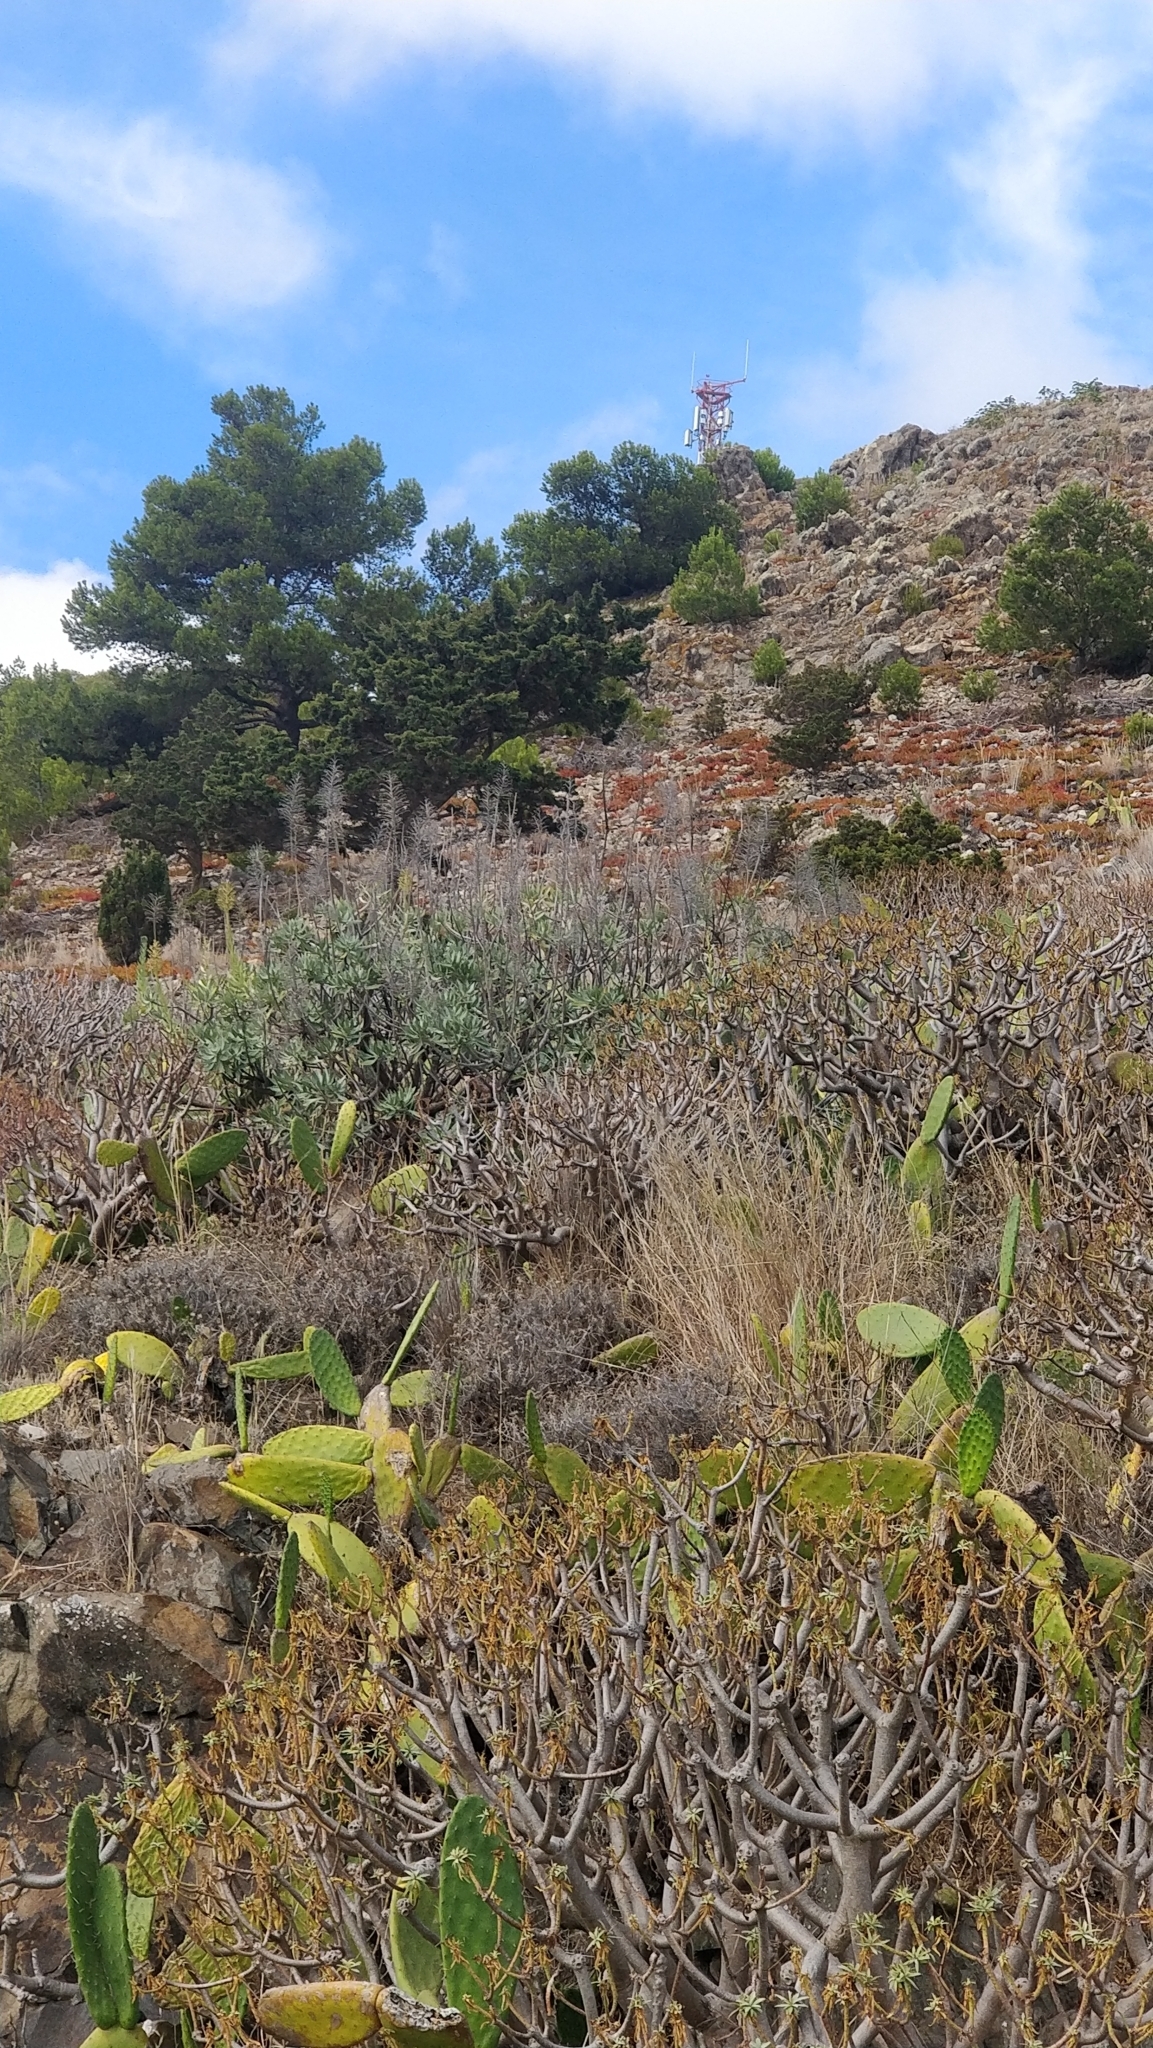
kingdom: Plantae
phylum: Tracheophyta
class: Magnoliopsida
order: Boraginales
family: Boraginaceae
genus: Echium
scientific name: Echium portosanctense
